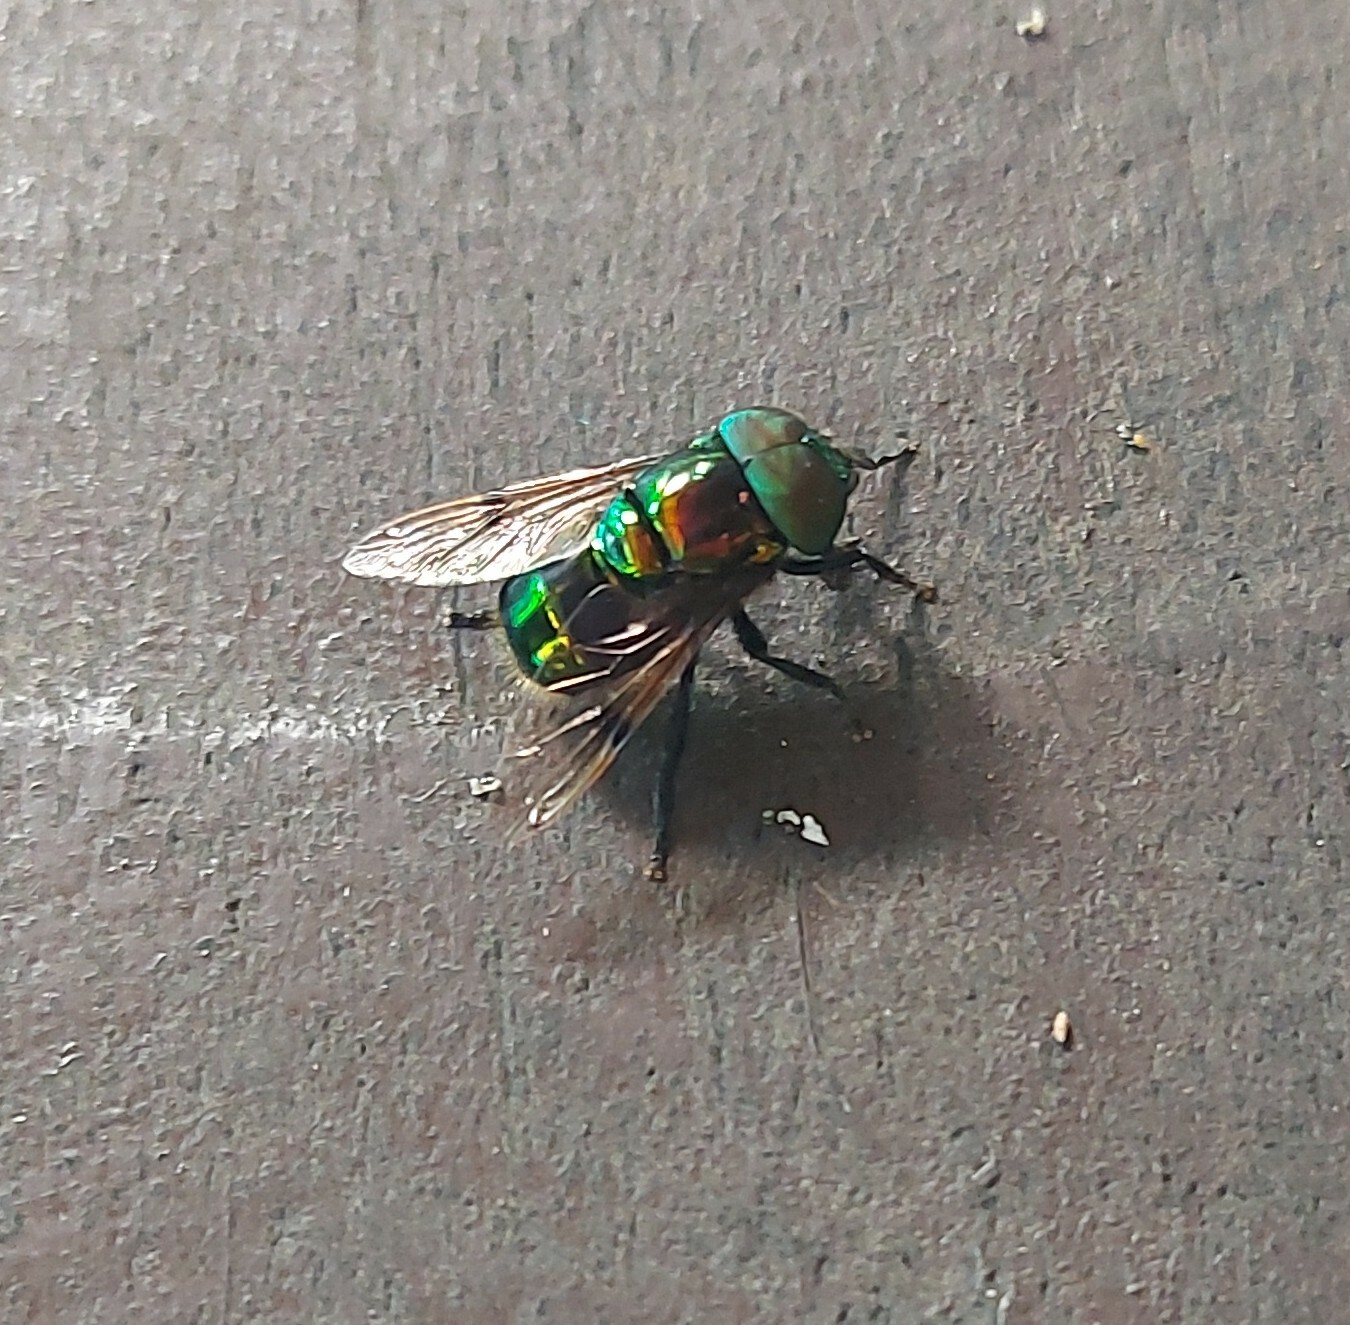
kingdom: Animalia
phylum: Arthropoda
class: Insecta
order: Diptera
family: Syrphidae
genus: Ornidia
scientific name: Ornidia obesa
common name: Syrphid fly
